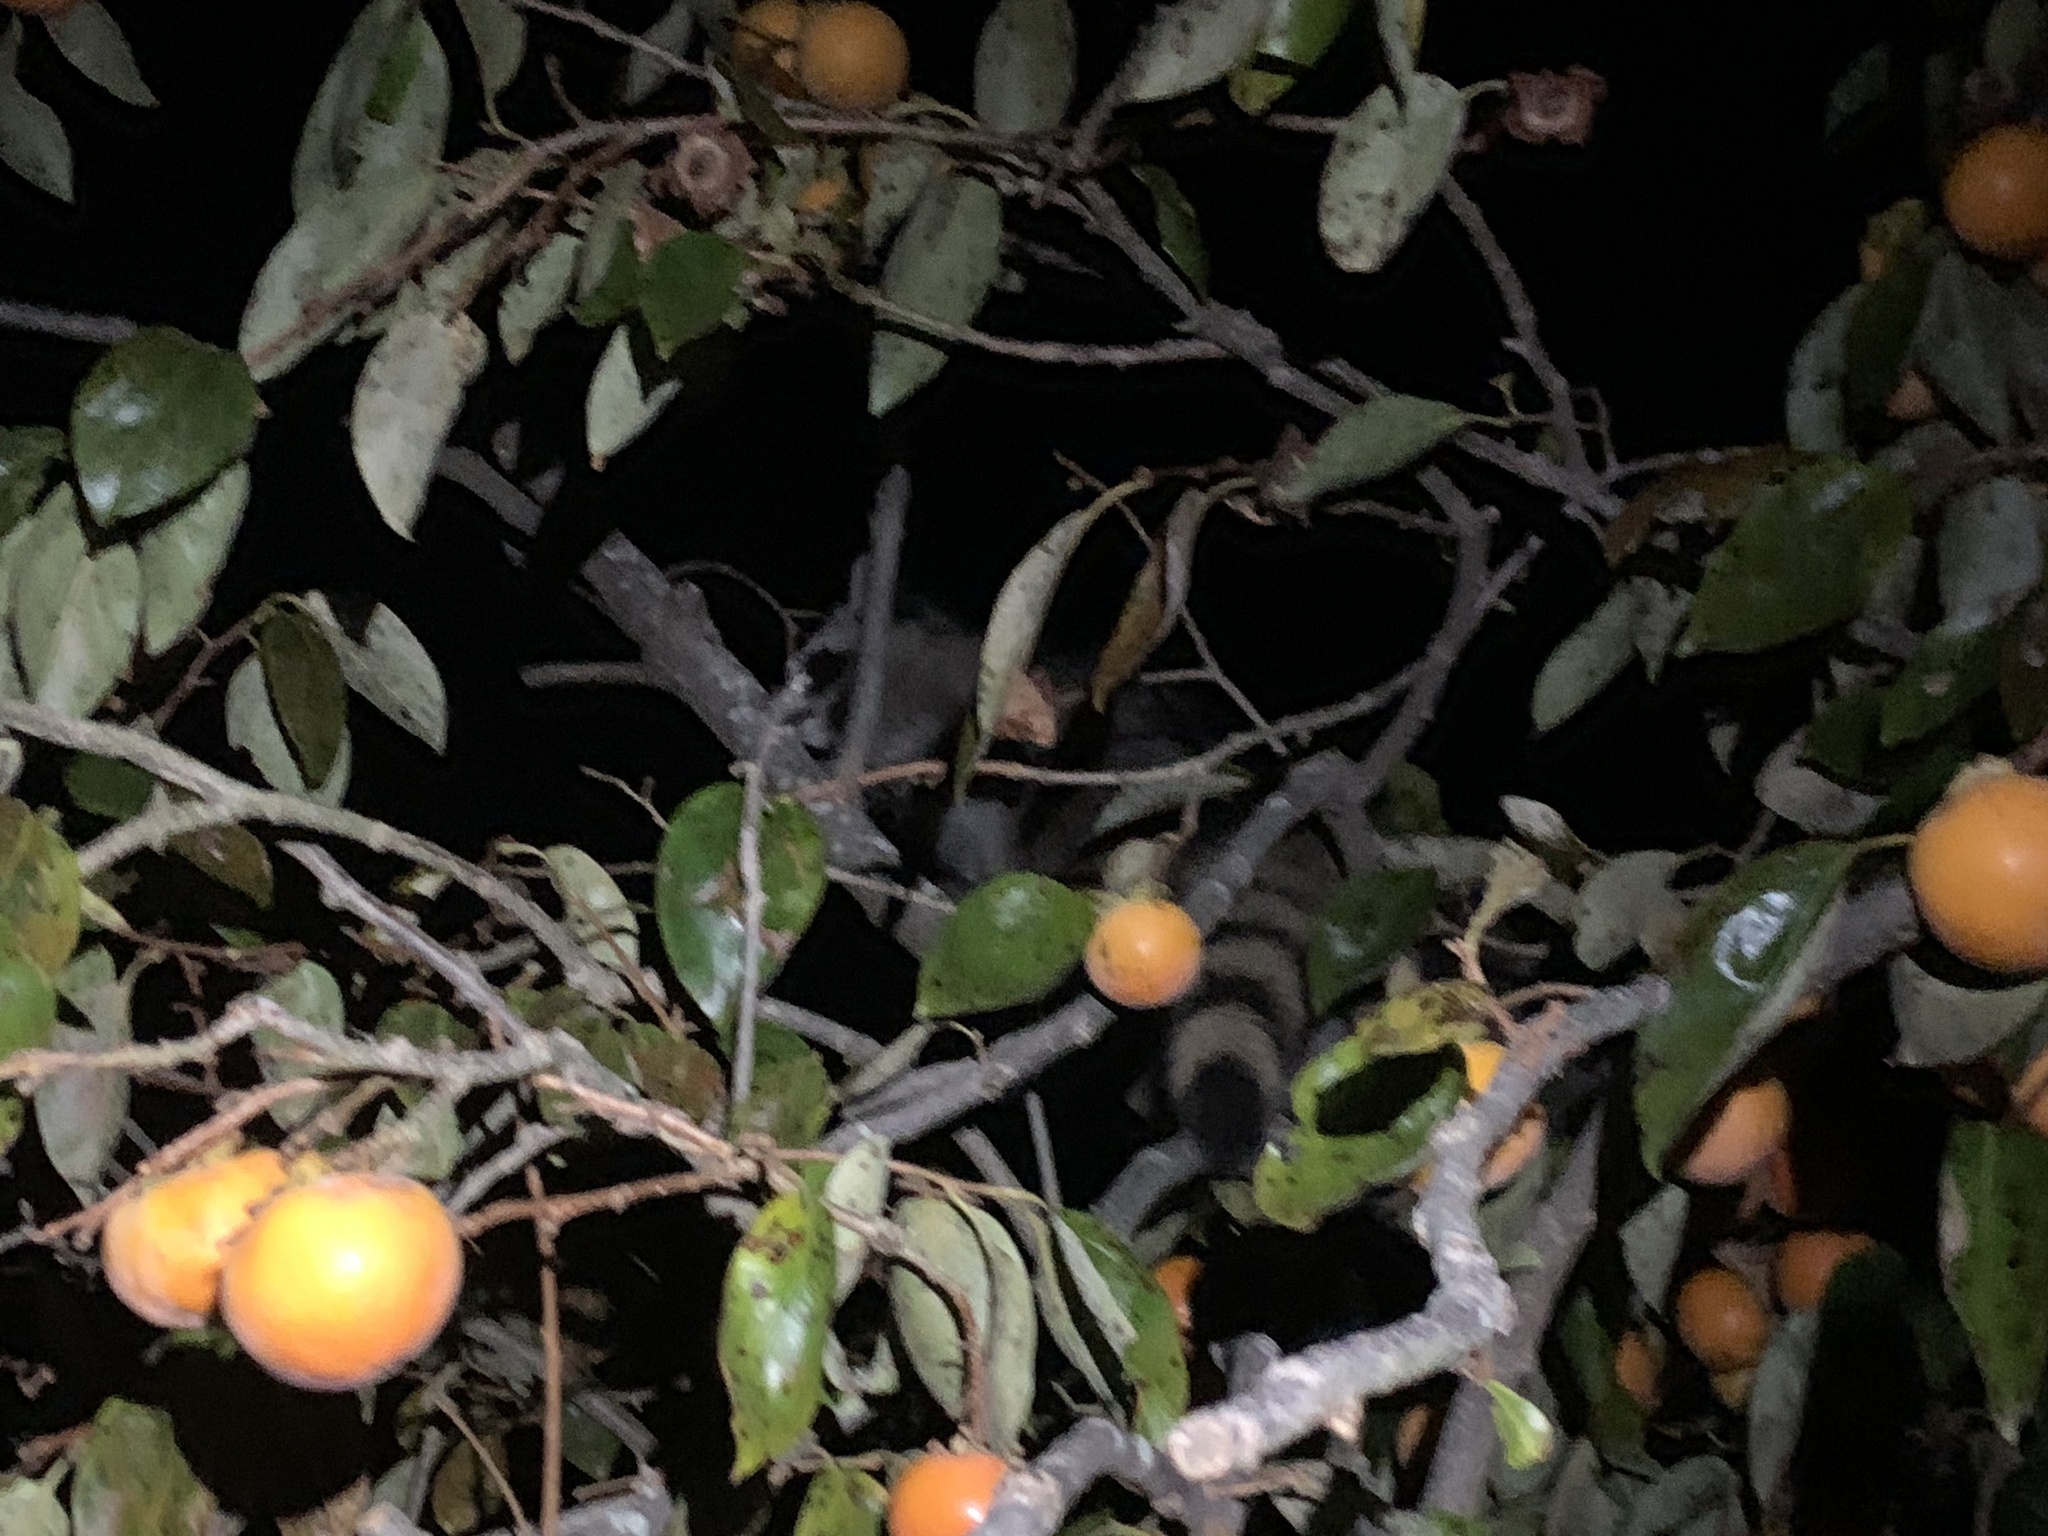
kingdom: Animalia
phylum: Chordata
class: Mammalia
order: Carnivora
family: Procyonidae
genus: Procyon
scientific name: Procyon lotor
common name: Raccoon
